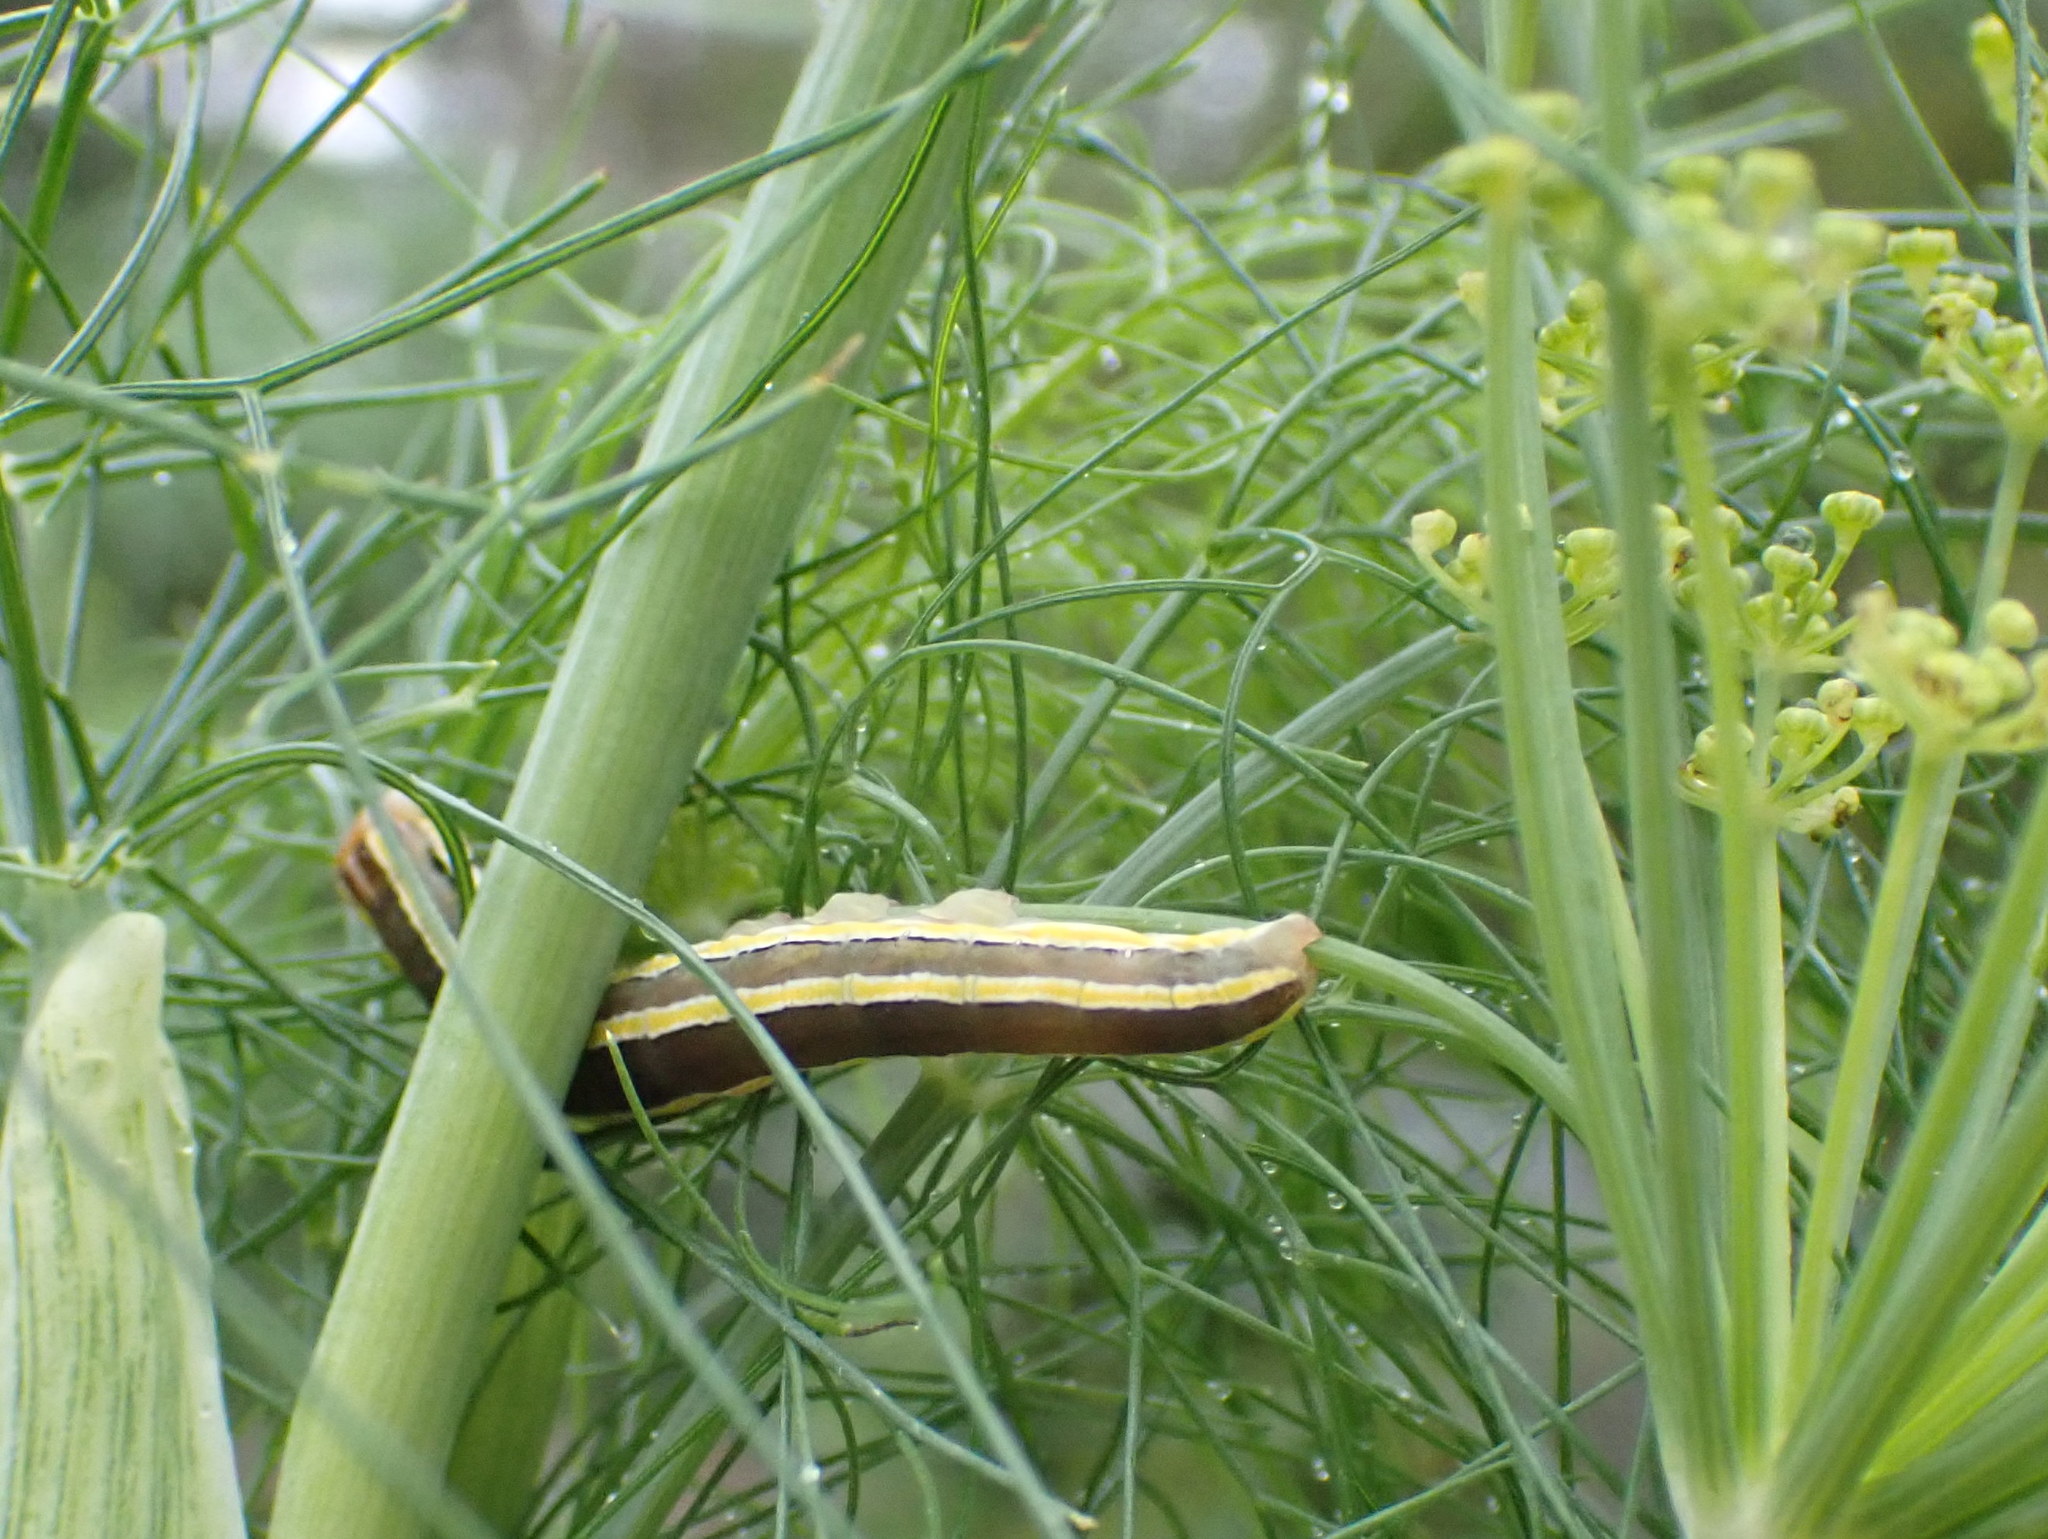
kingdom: Animalia
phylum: Arthropoda
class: Insecta
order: Lepidoptera
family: Noctuidae
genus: Trichordestra
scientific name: Trichordestra legitima
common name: Striped garden caterpillar
